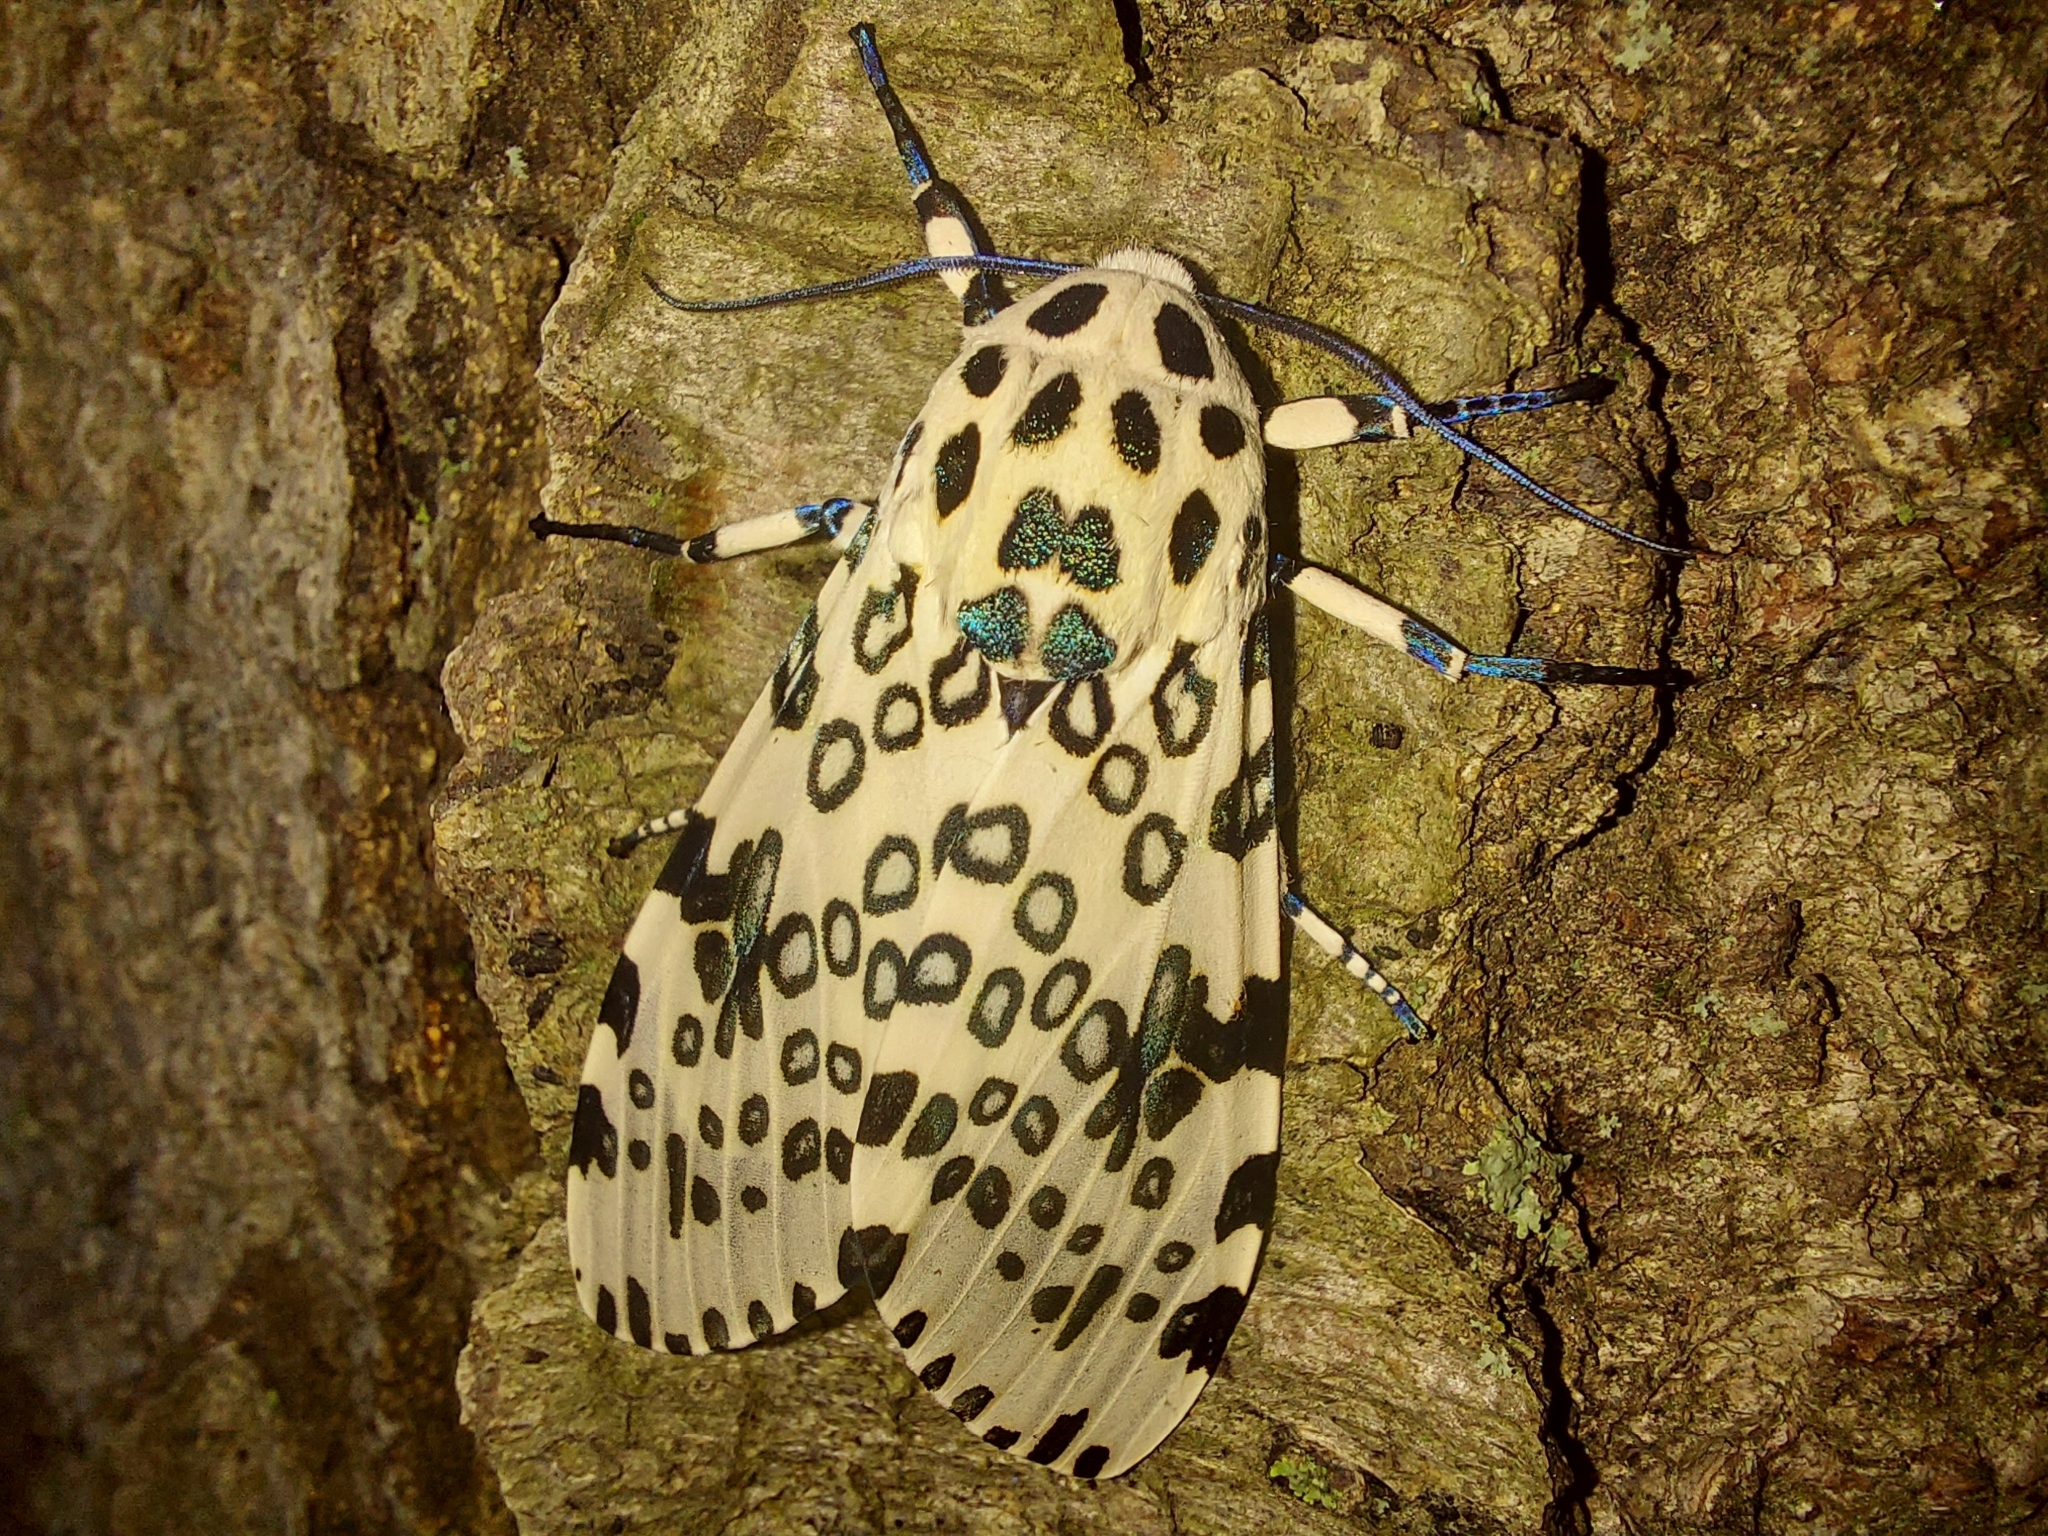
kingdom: Animalia
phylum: Arthropoda
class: Insecta
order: Lepidoptera
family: Erebidae
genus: Hypercompe
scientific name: Hypercompe scribonia
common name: Giant leopard moth
